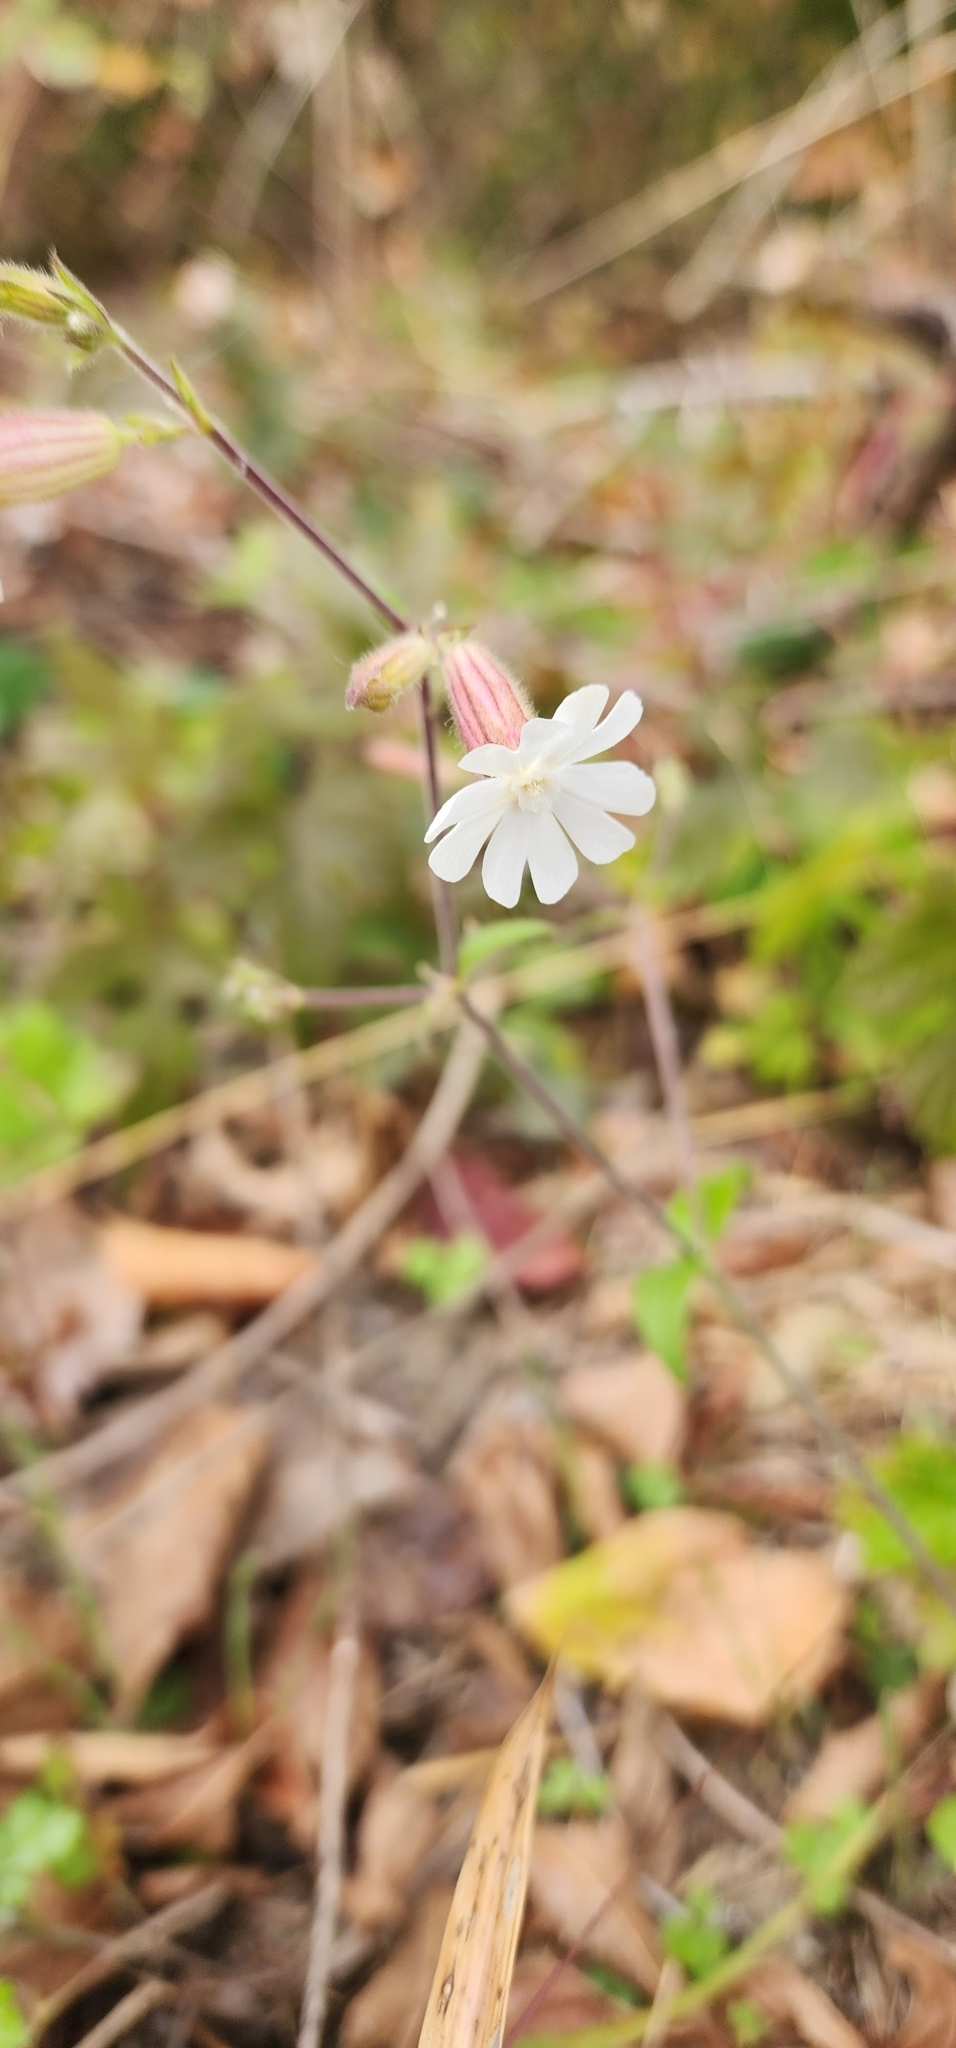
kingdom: Plantae
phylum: Tracheophyta
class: Magnoliopsida
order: Caryophyllales
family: Caryophyllaceae
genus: Silene
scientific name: Silene latifolia
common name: White campion
